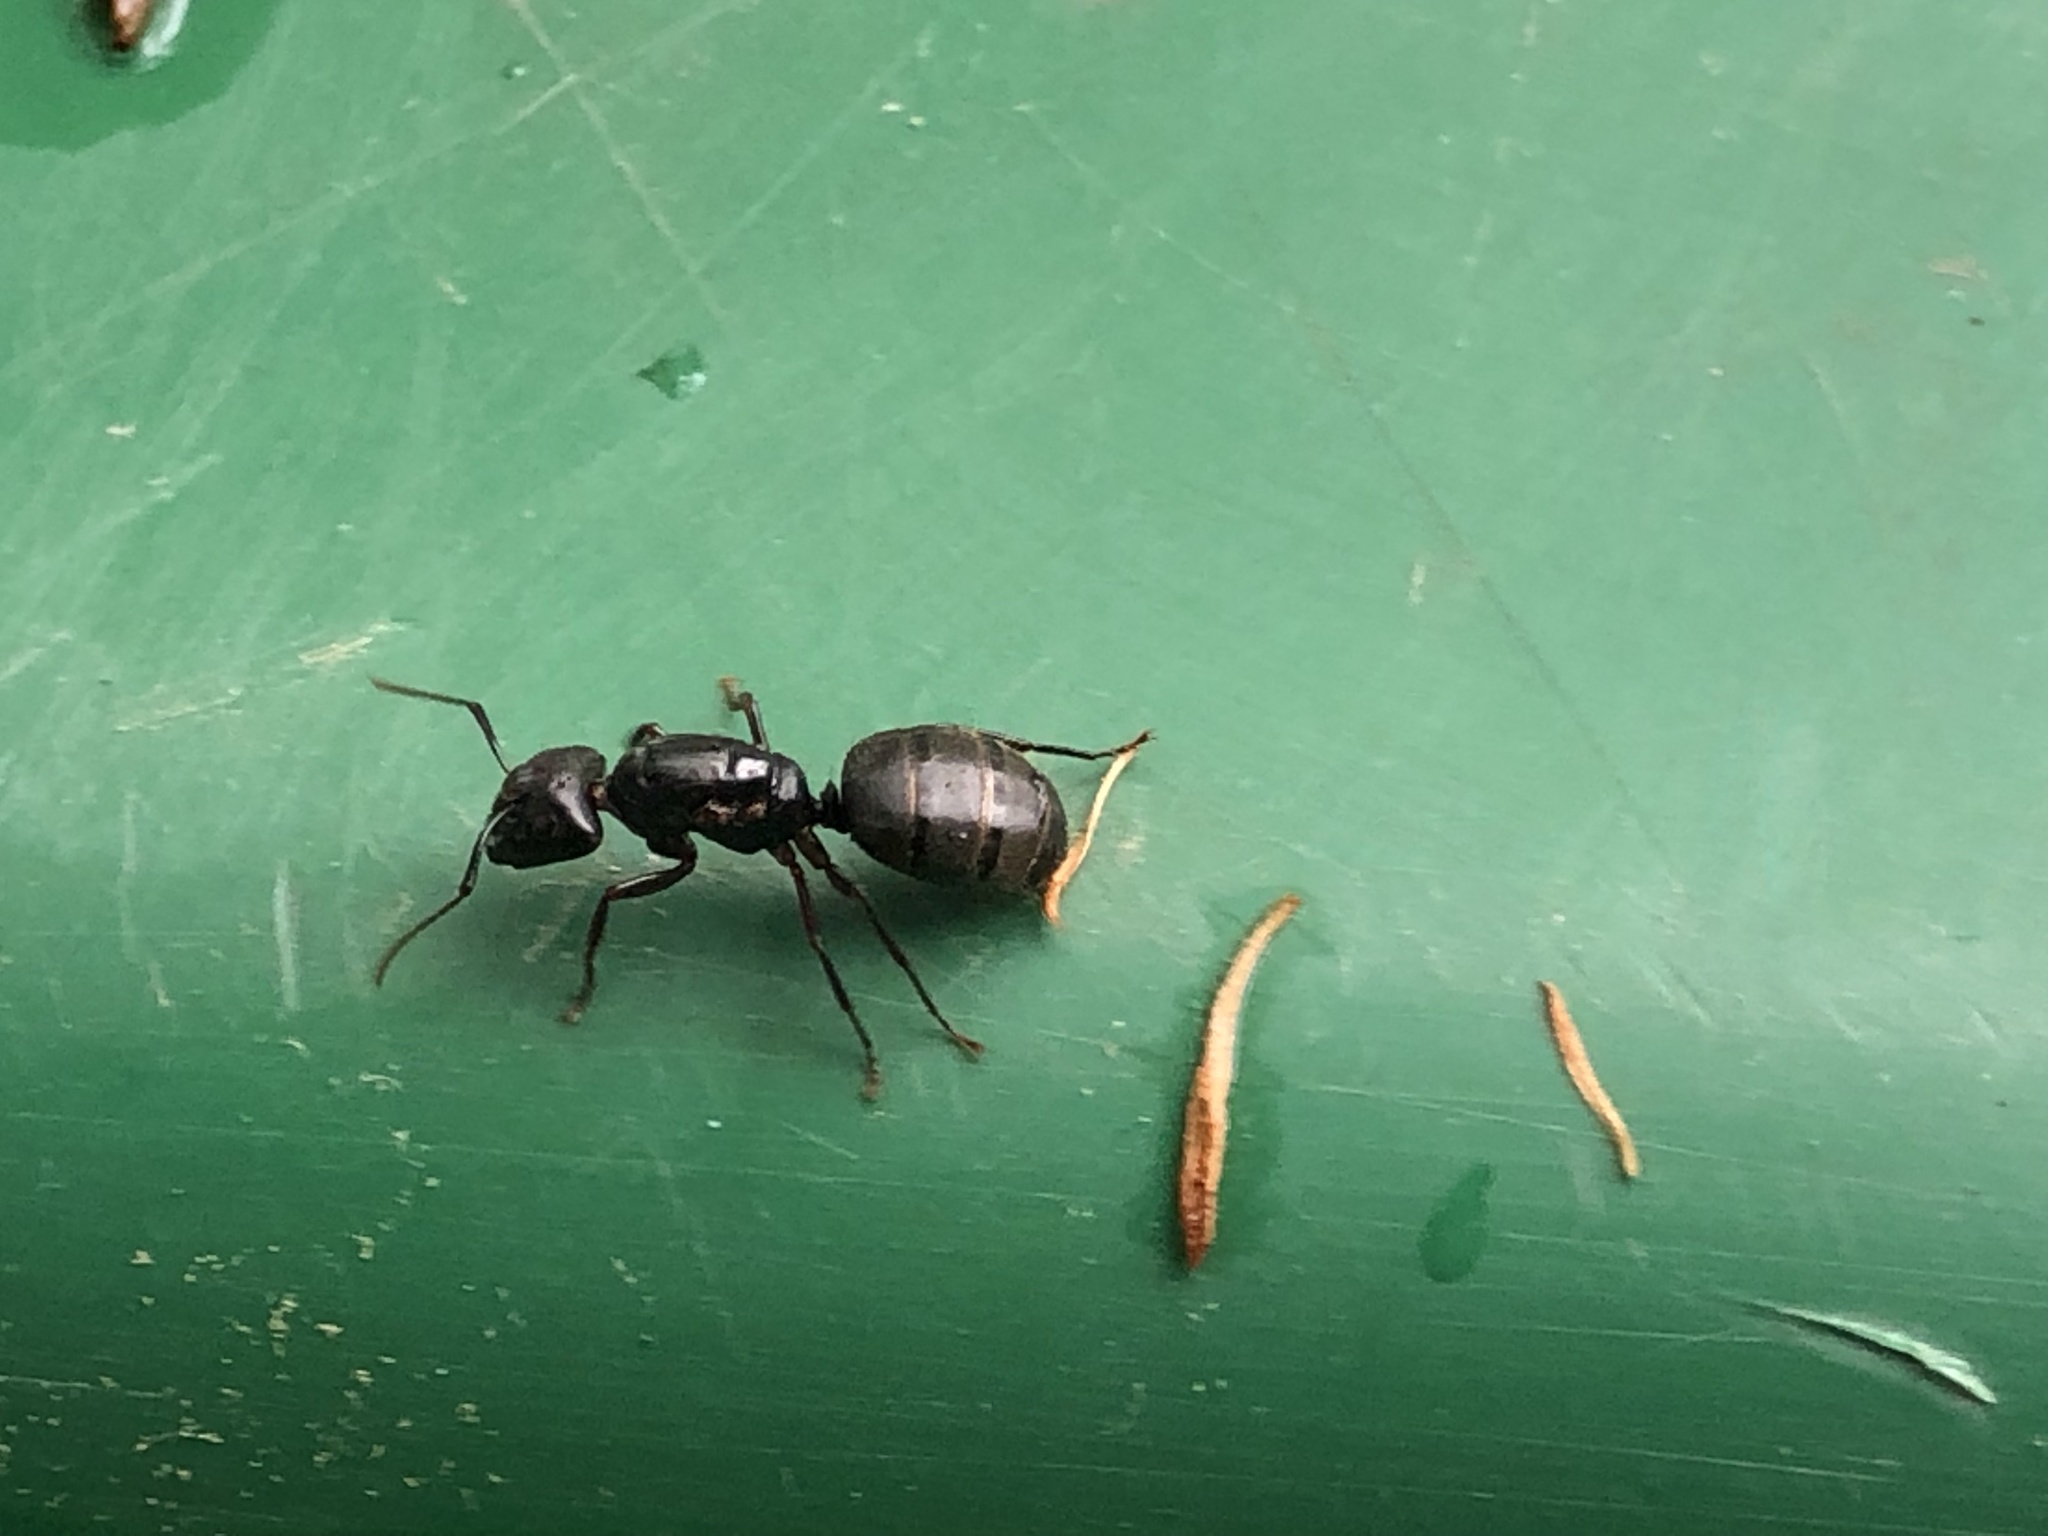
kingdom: Animalia
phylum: Arthropoda
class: Insecta
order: Hymenoptera
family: Formicidae
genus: Camponotus
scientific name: Camponotus pennsylvanicus
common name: Black carpenter ant
